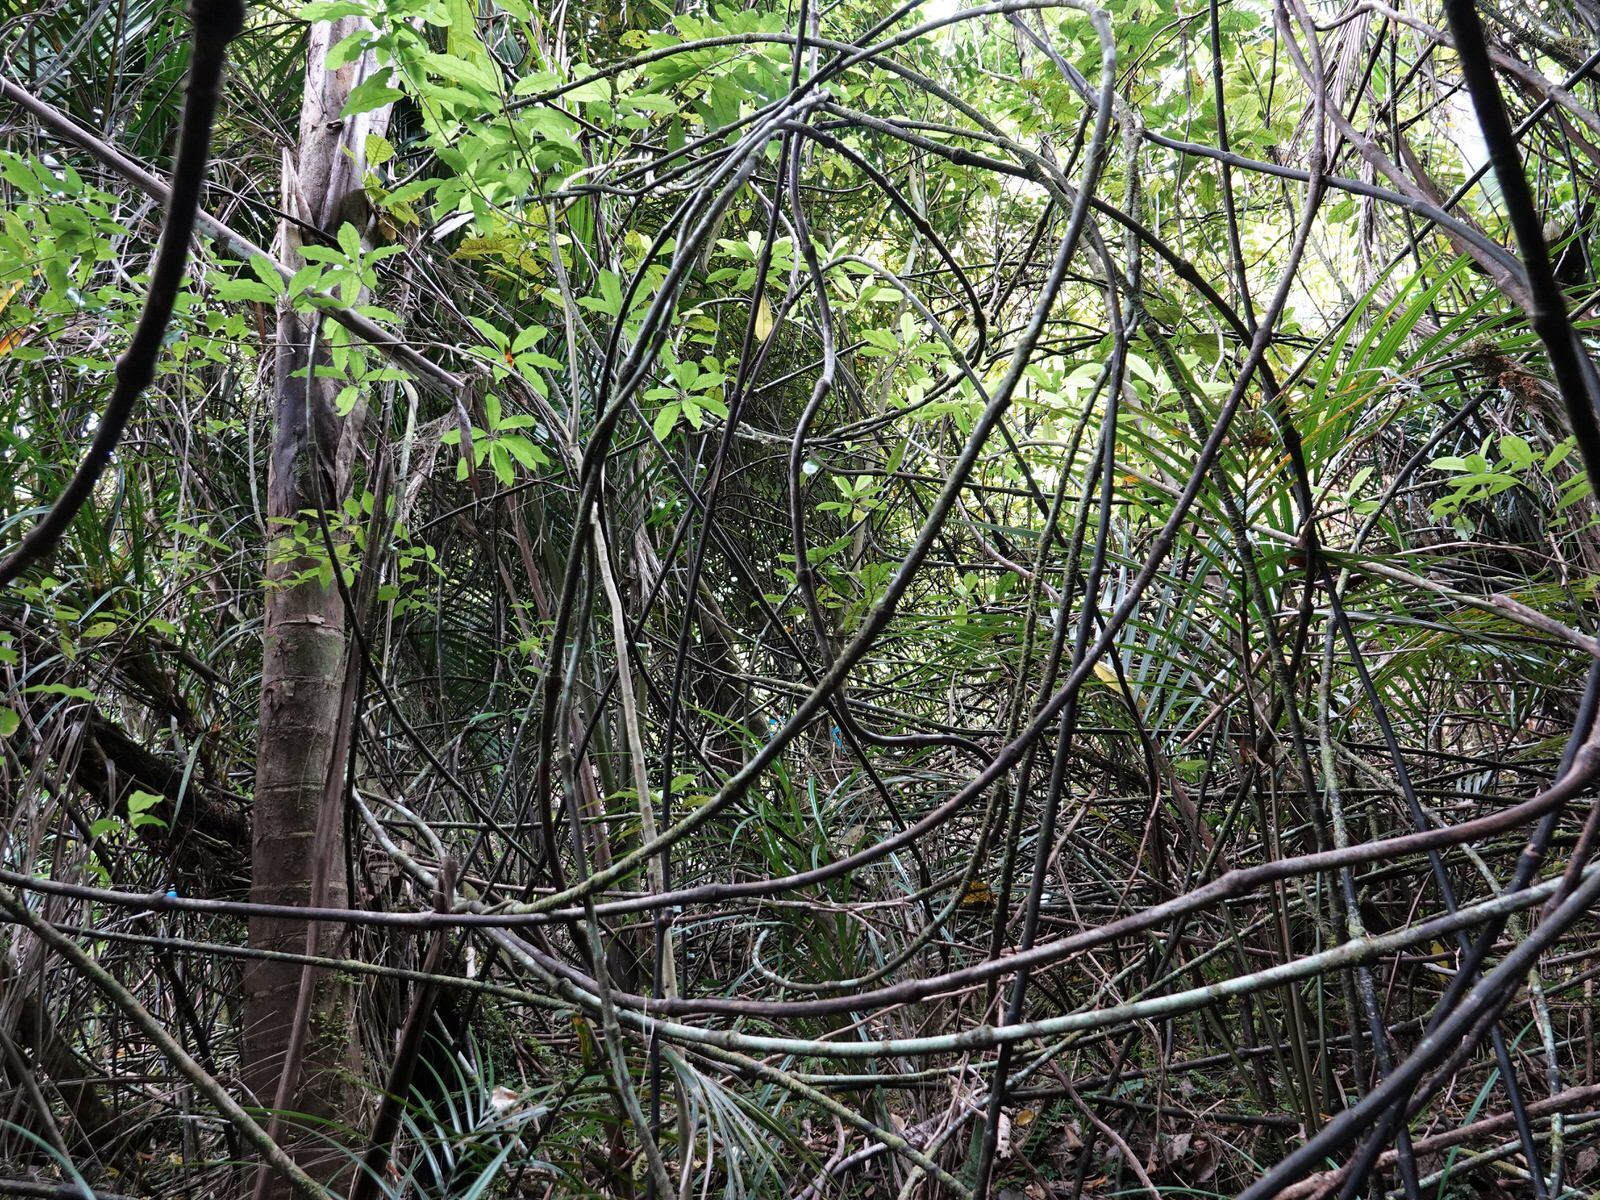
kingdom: Plantae
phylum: Tracheophyta
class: Liliopsida
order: Liliales
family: Ripogonaceae
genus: Ripogonum
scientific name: Ripogonum scandens
